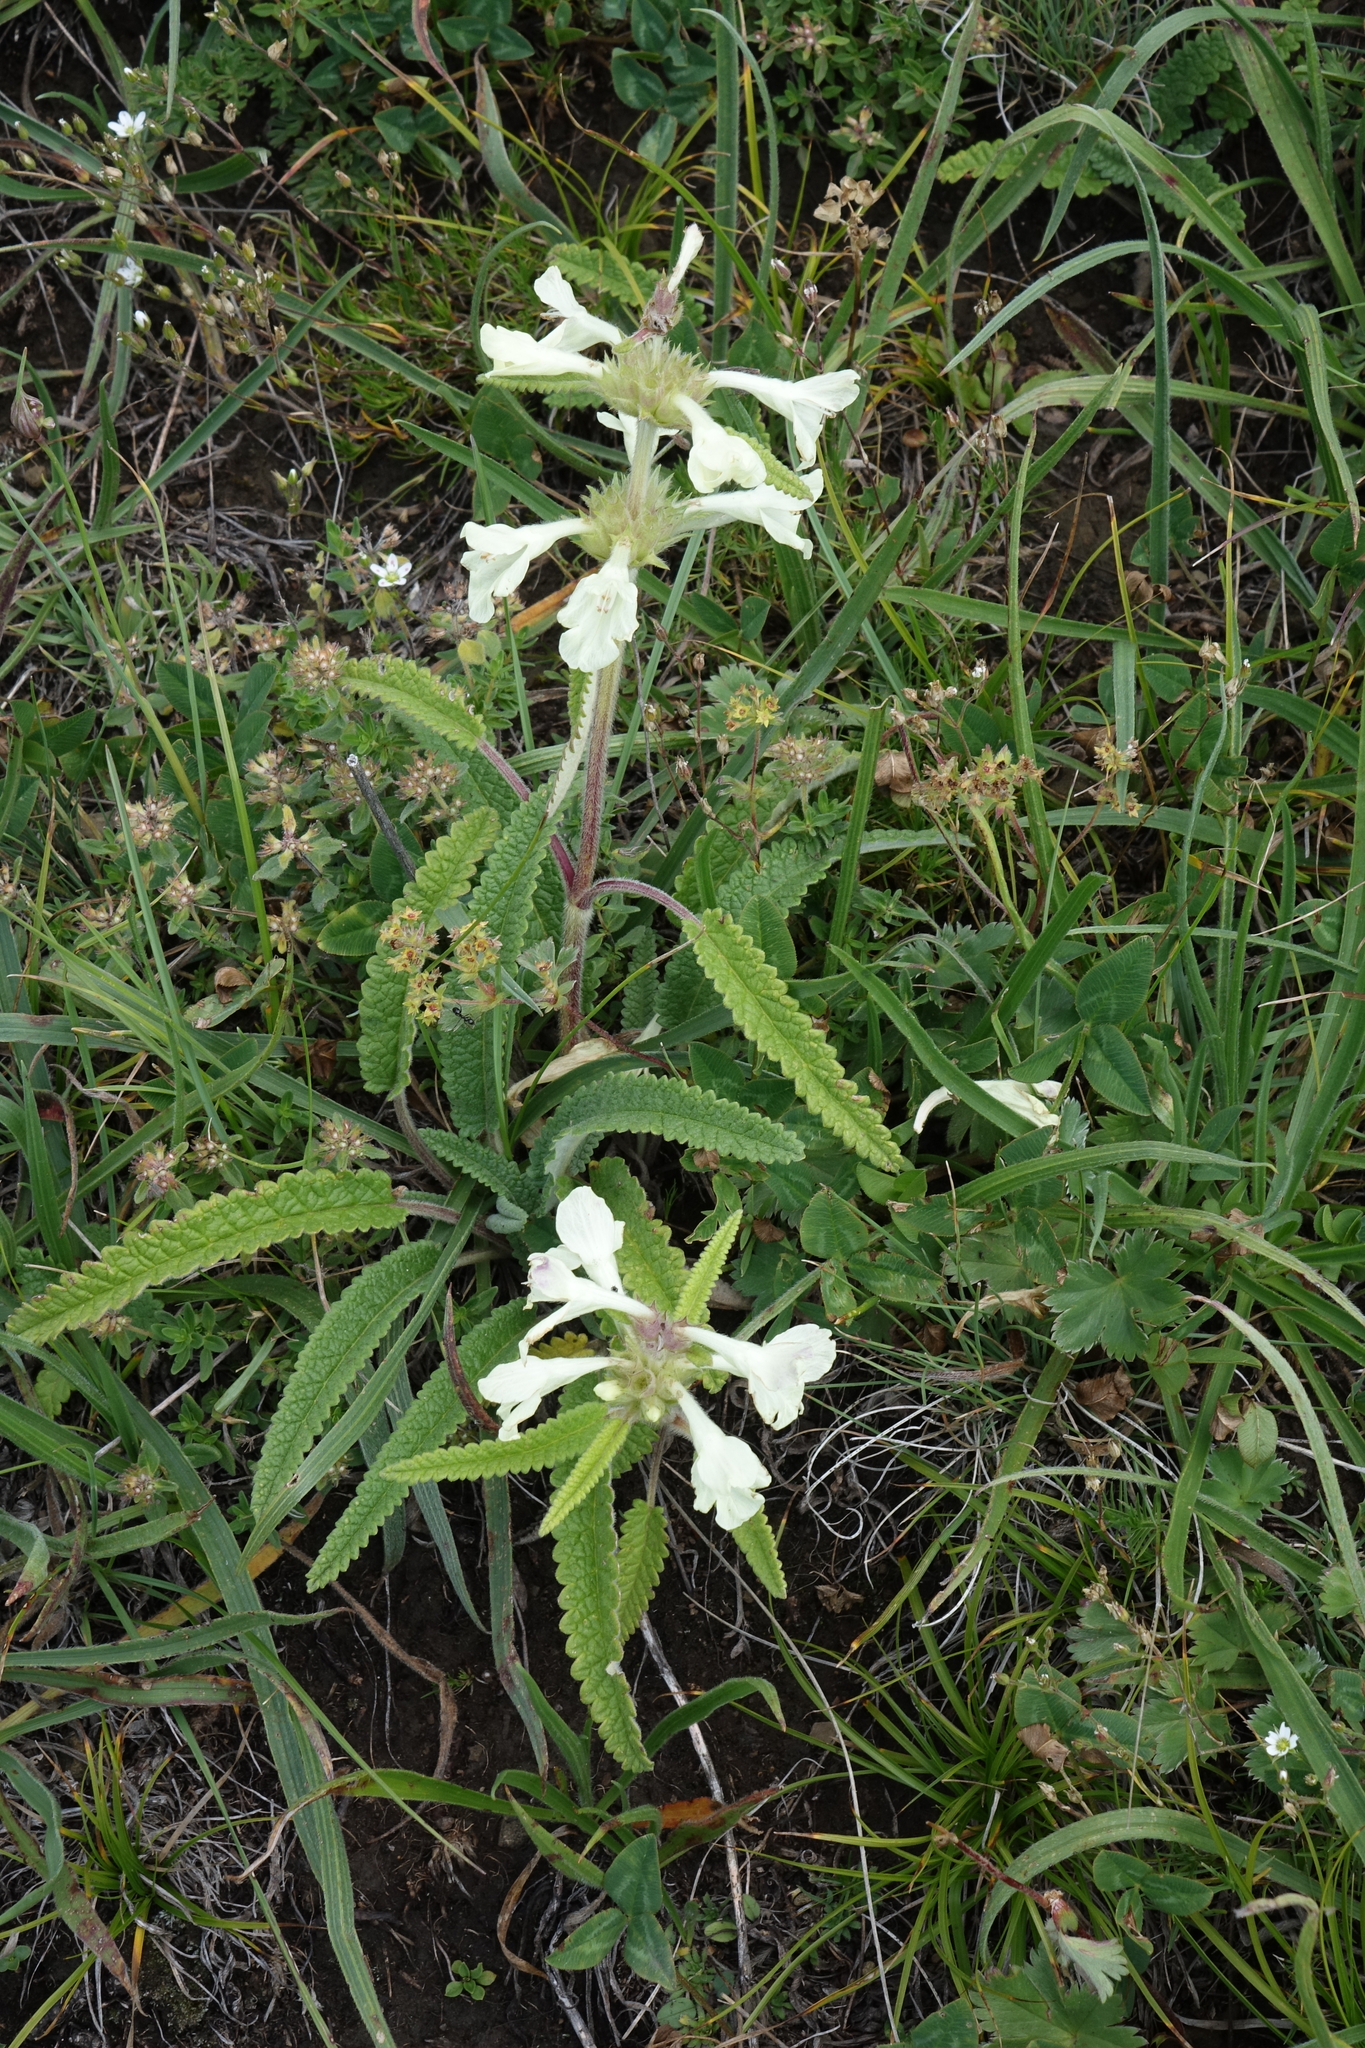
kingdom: Plantae
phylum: Tracheophyta
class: Magnoliopsida
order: Lamiales
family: Lamiaceae
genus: Betonica
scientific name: Betonica nivea
